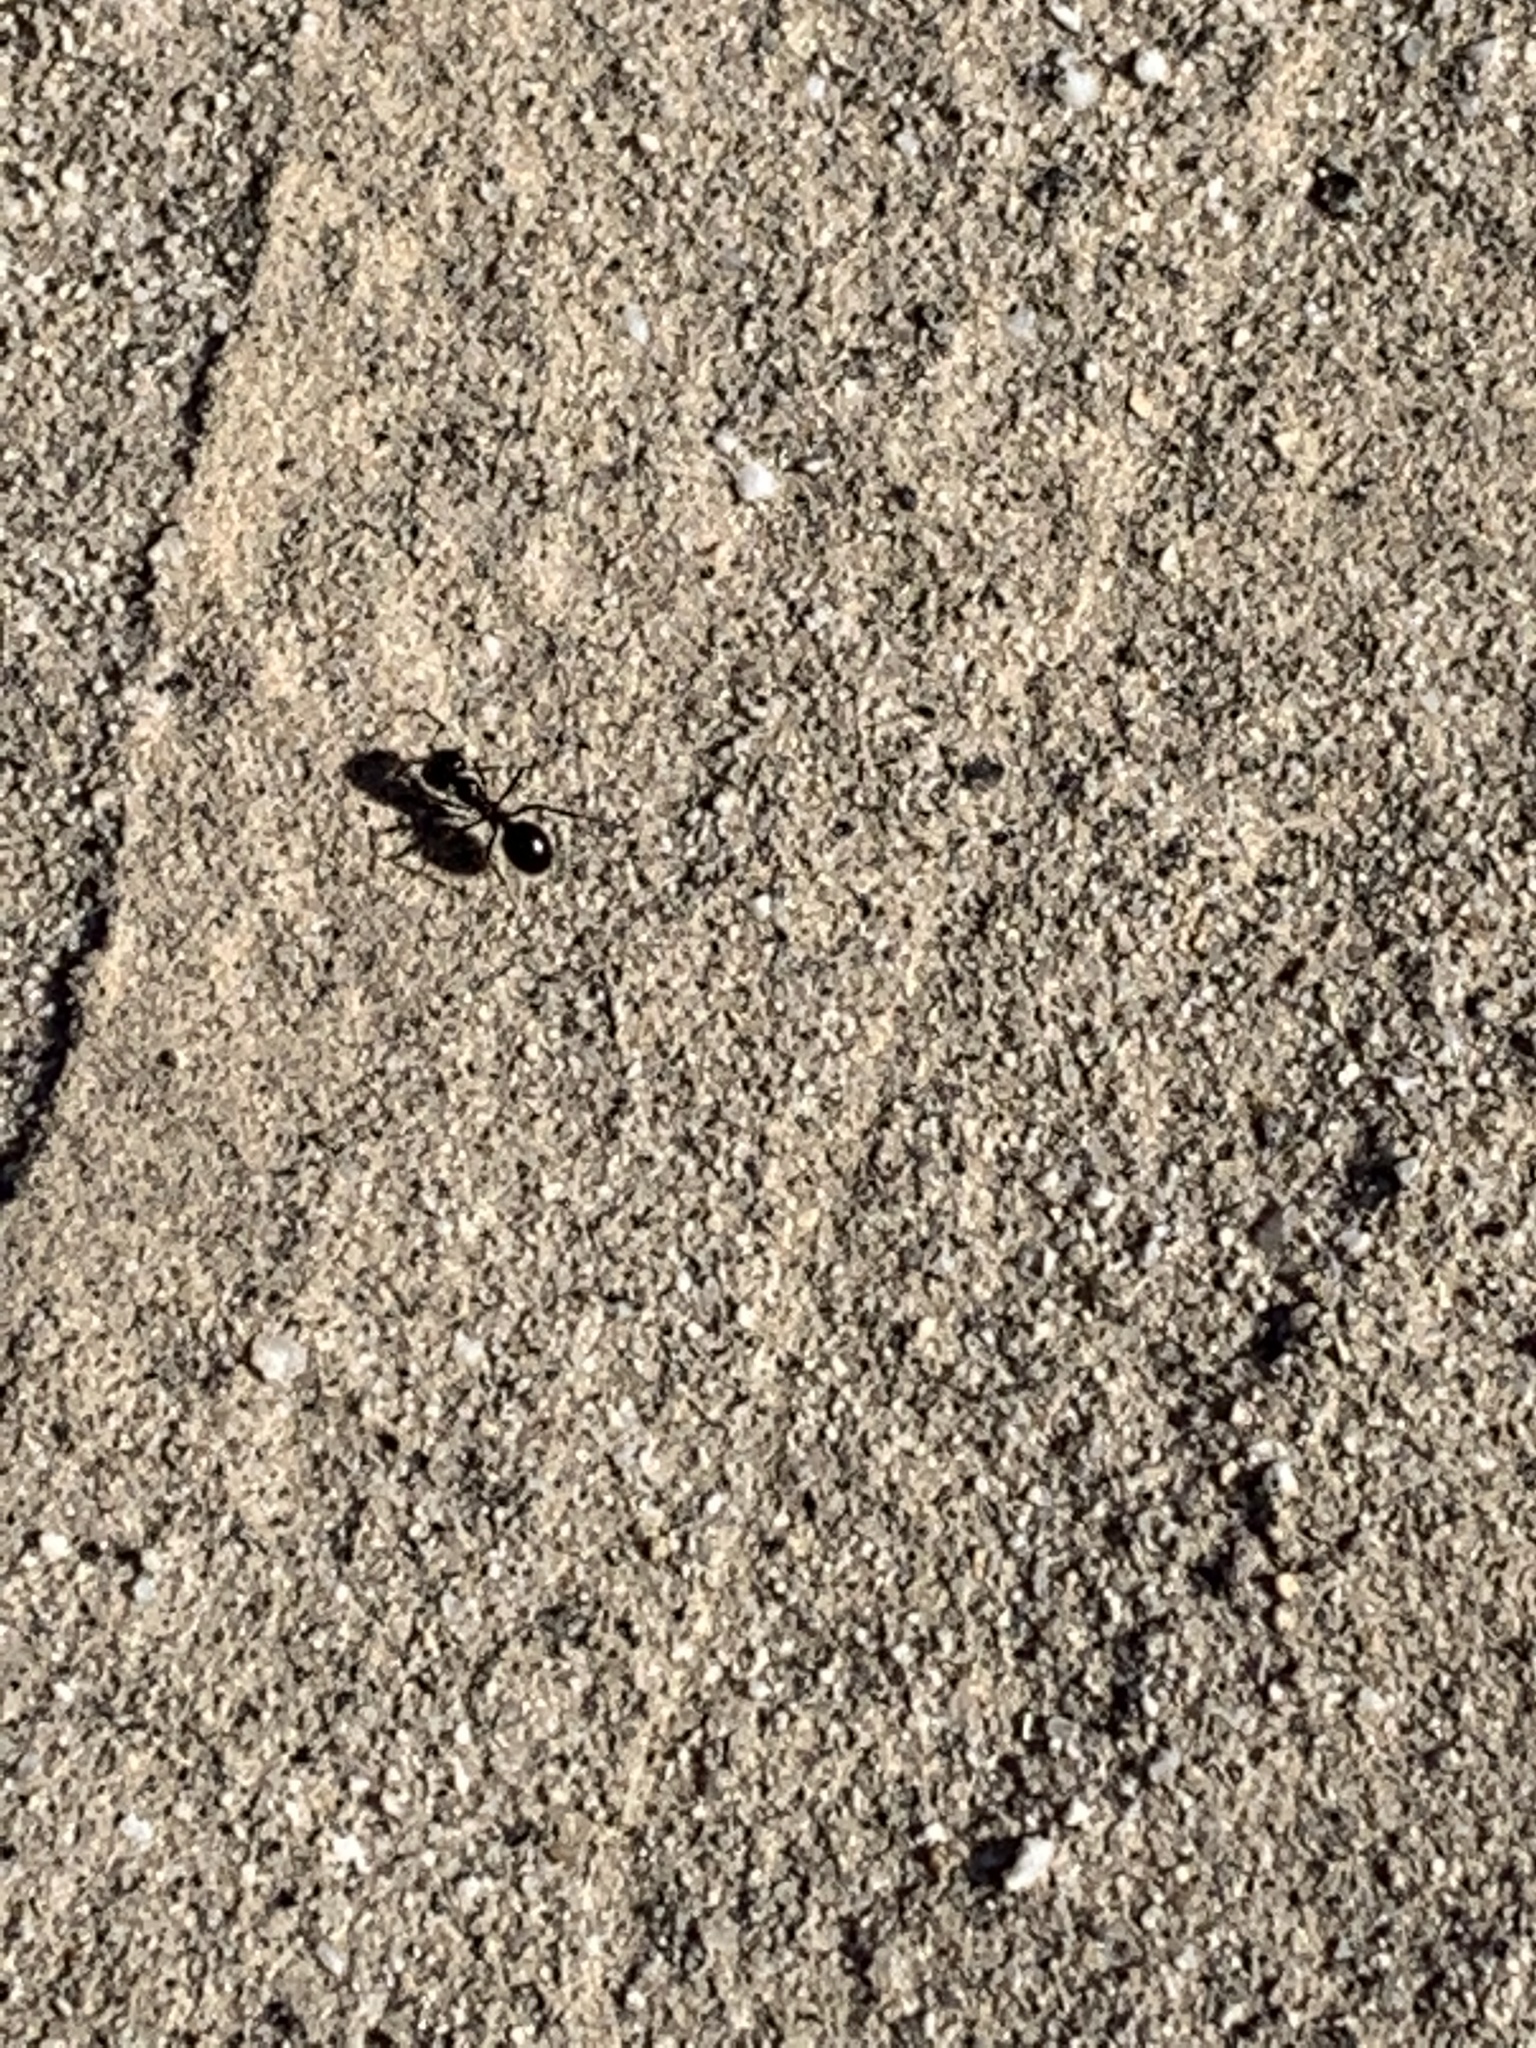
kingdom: Animalia
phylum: Arthropoda
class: Insecta
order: Hymenoptera
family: Formicidae
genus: Messor
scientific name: Messor pergandei
